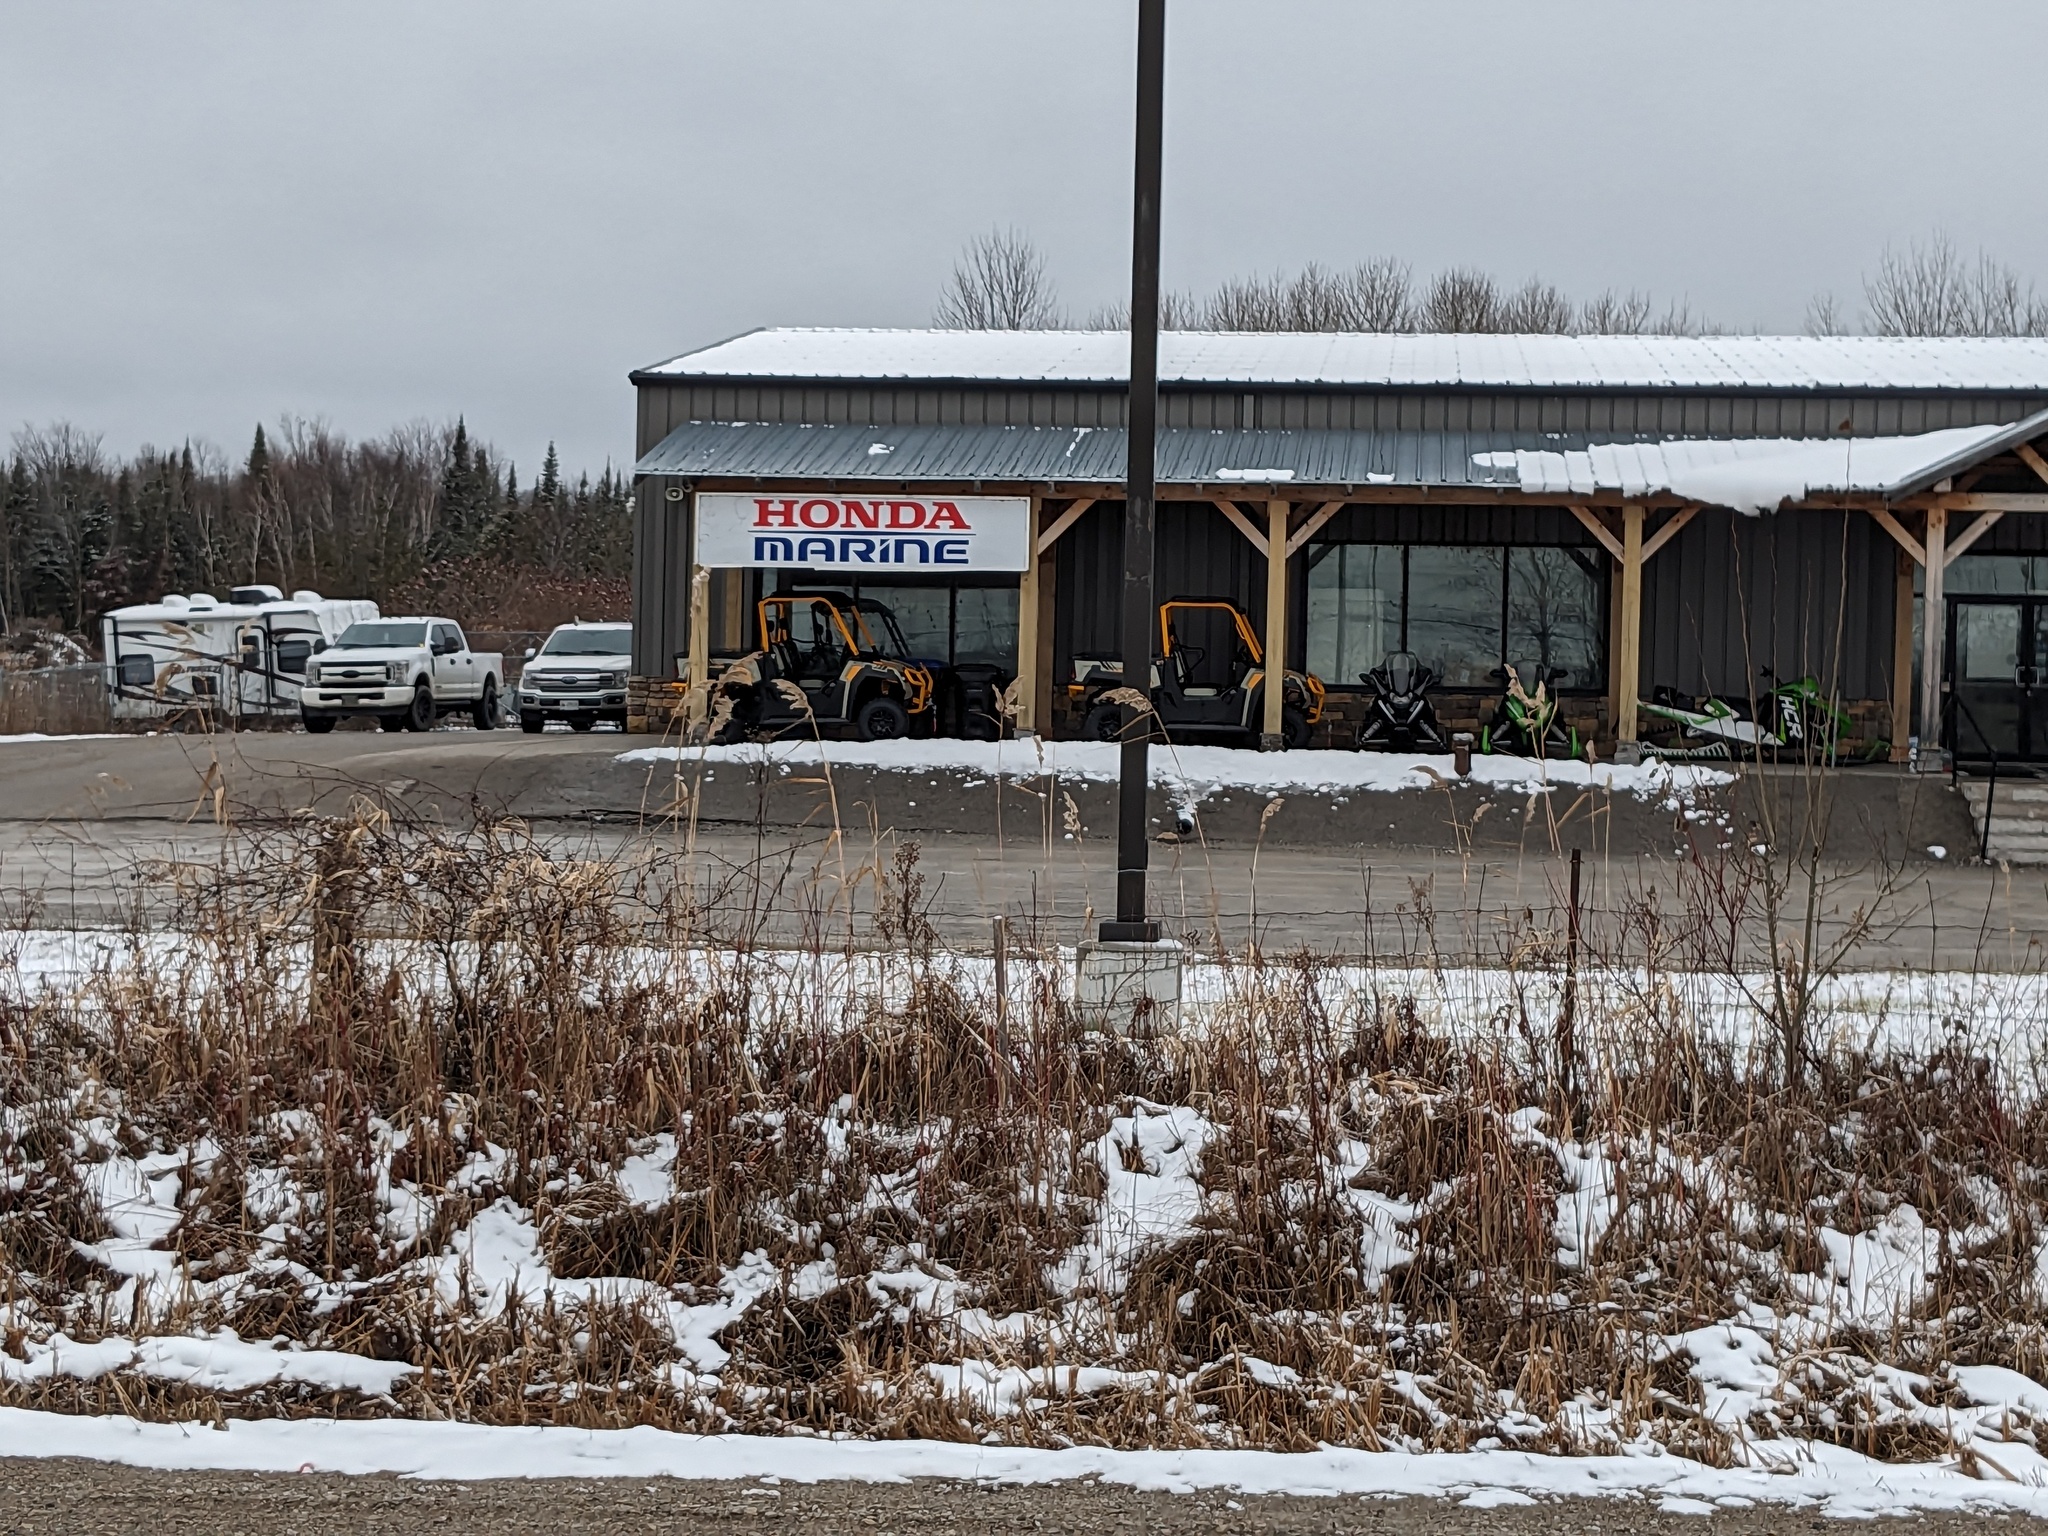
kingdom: Plantae
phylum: Tracheophyta
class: Liliopsida
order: Poales
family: Poaceae
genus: Phragmites
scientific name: Phragmites australis
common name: Common reed
